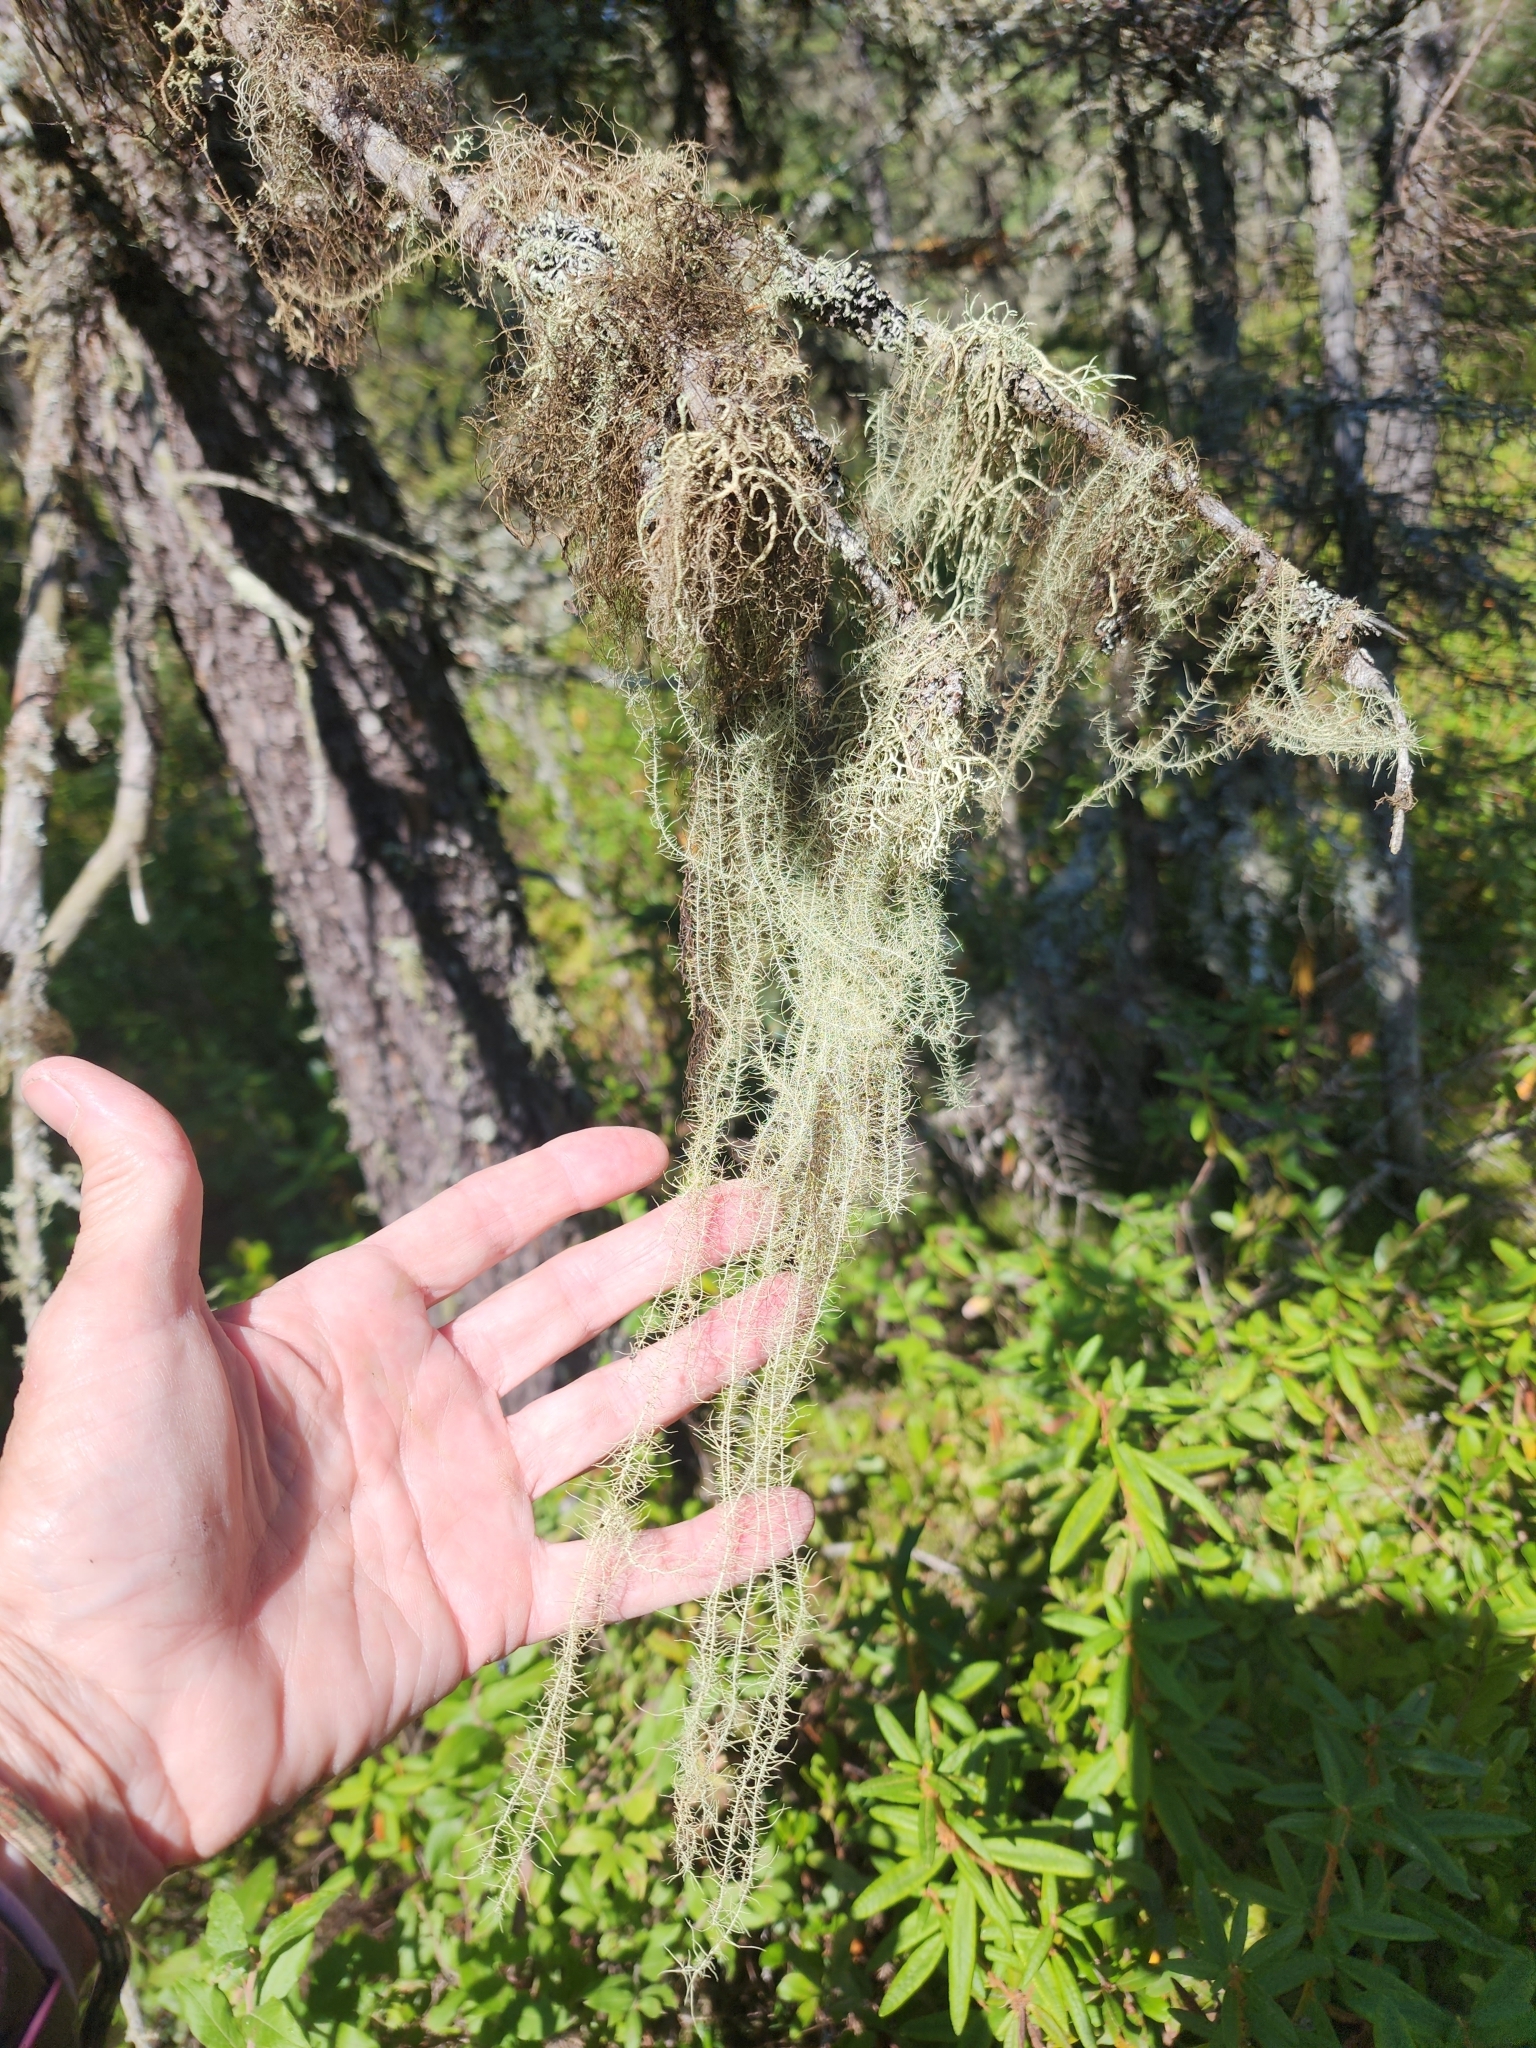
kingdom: Fungi
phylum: Ascomycota
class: Lecanoromycetes
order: Lecanorales
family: Parmeliaceae
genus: Dolichousnea
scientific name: Dolichousnea longissima
